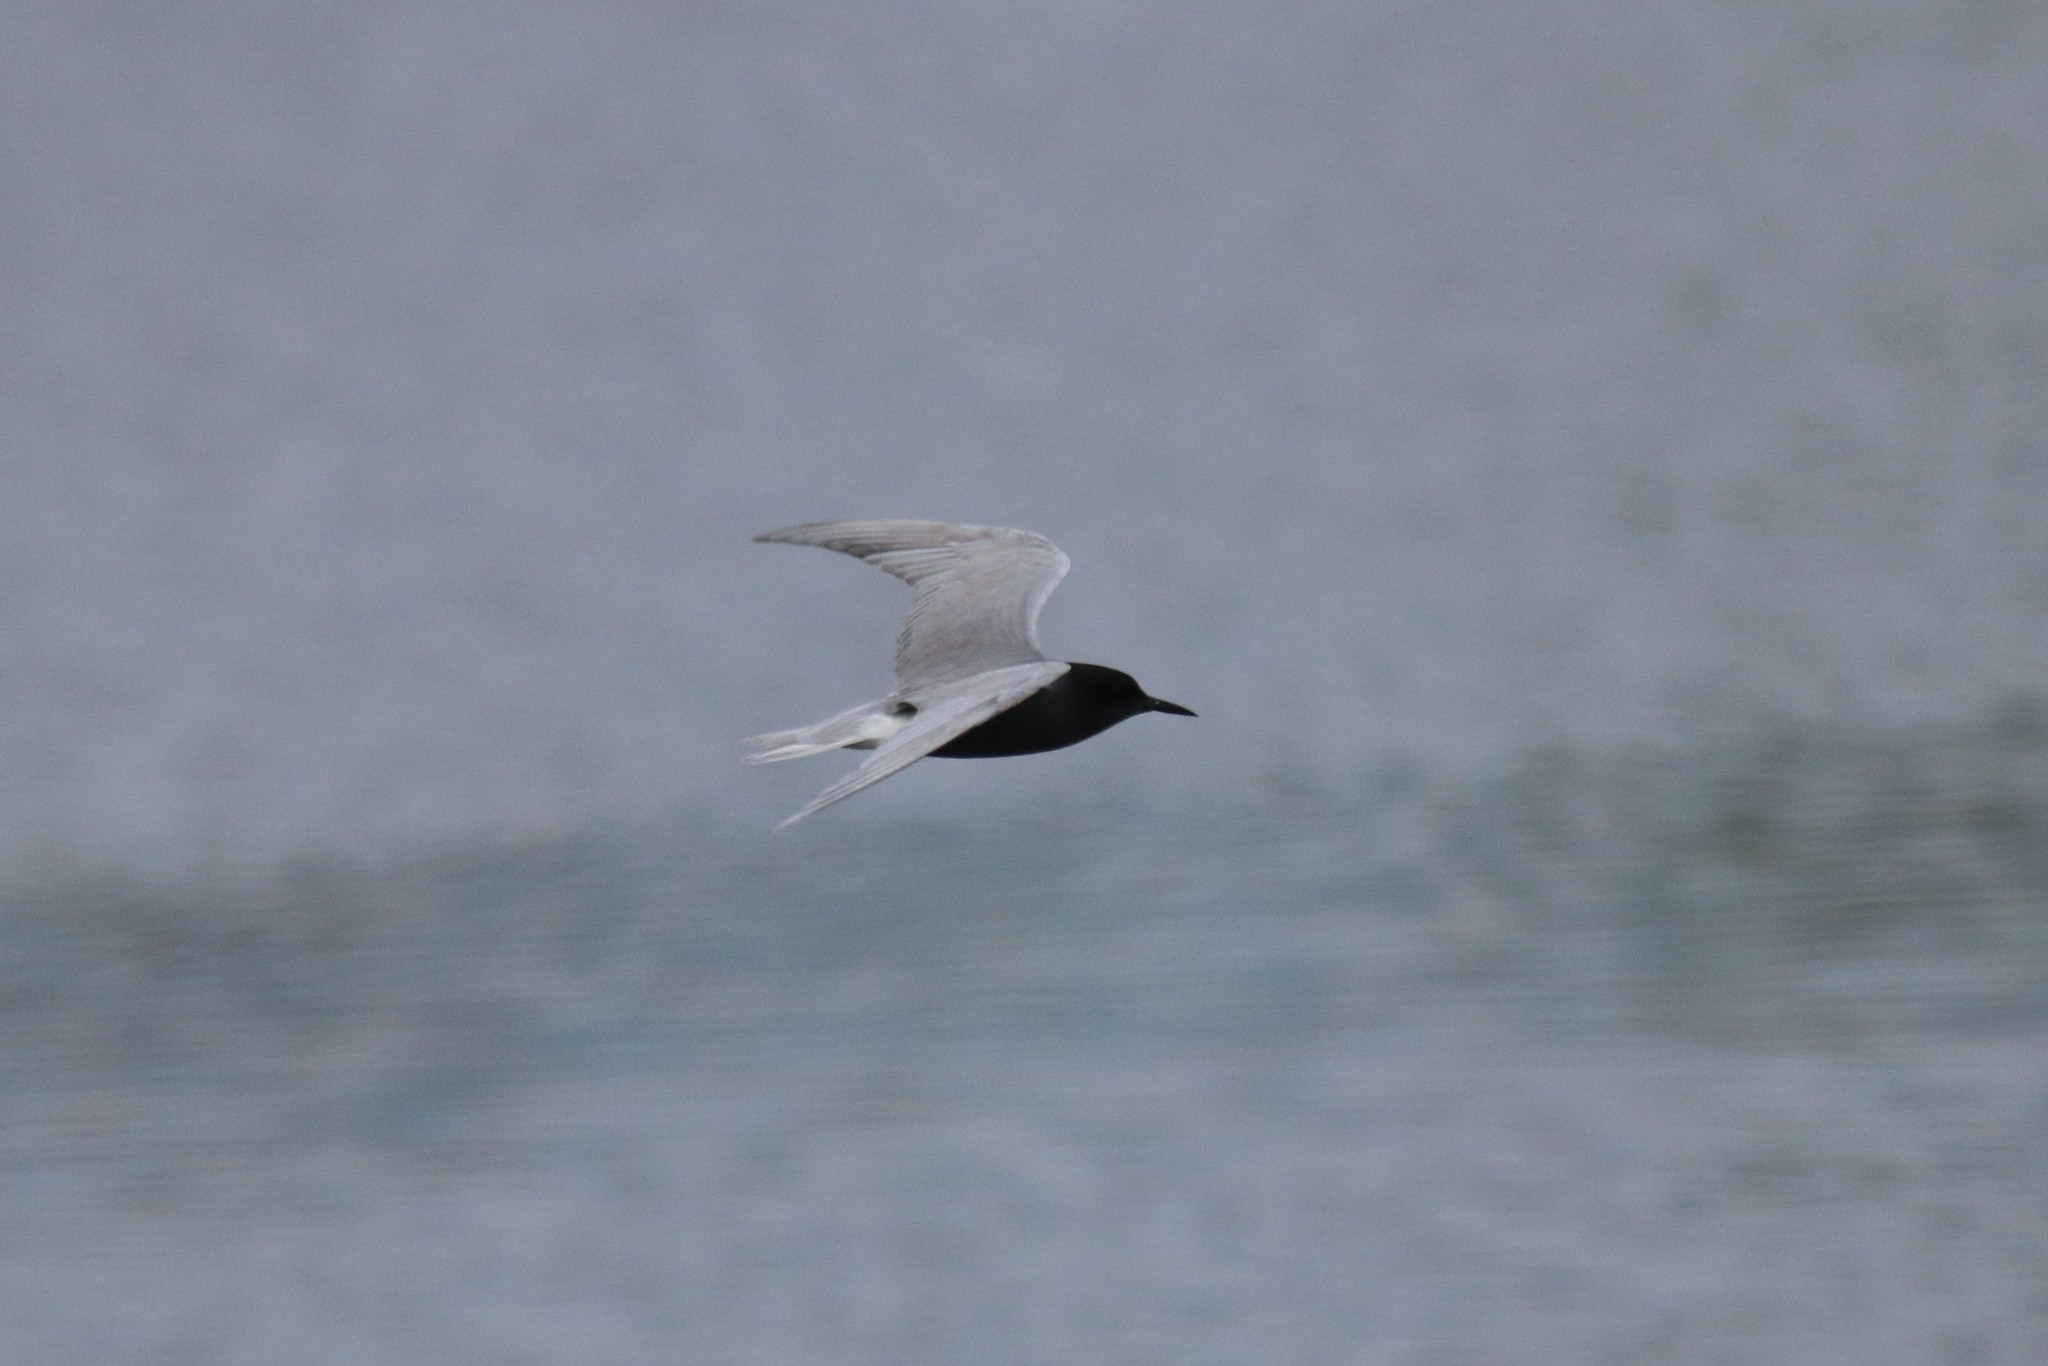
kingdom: Animalia
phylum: Chordata
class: Aves
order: Charadriiformes
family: Laridae
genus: Chlidonias
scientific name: Chlidonias niger
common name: Black tern
